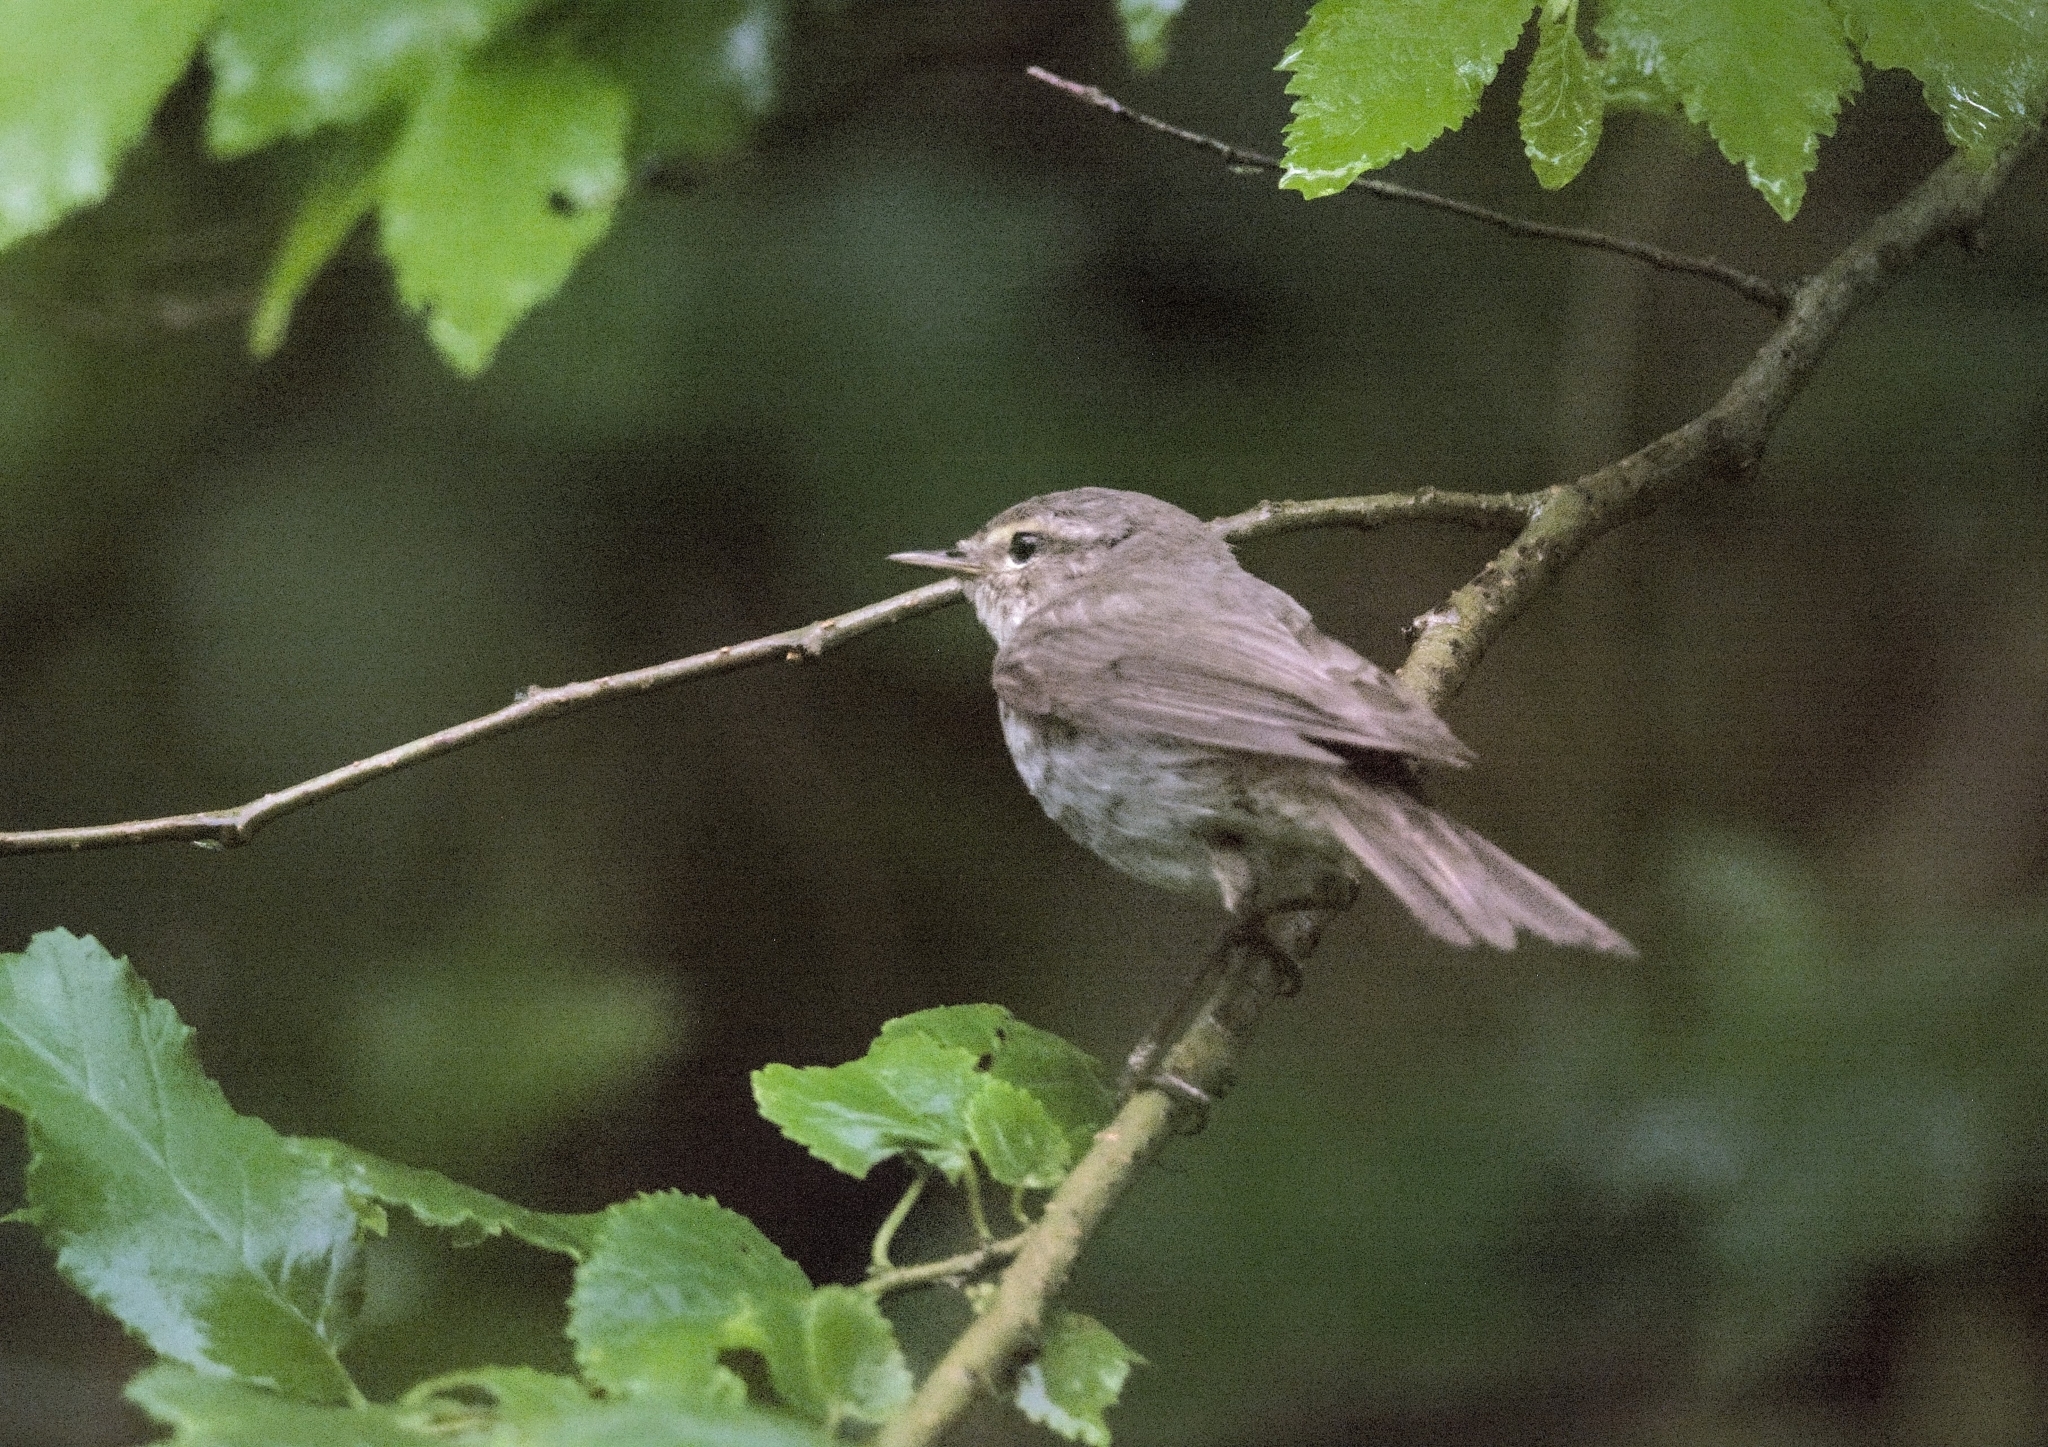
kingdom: Animalia
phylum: Chordata
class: Aves
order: Passeriformes
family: Phylloscopidae
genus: Phylloscopus
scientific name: Phylloscopus collybita
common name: Common chiffchaff
